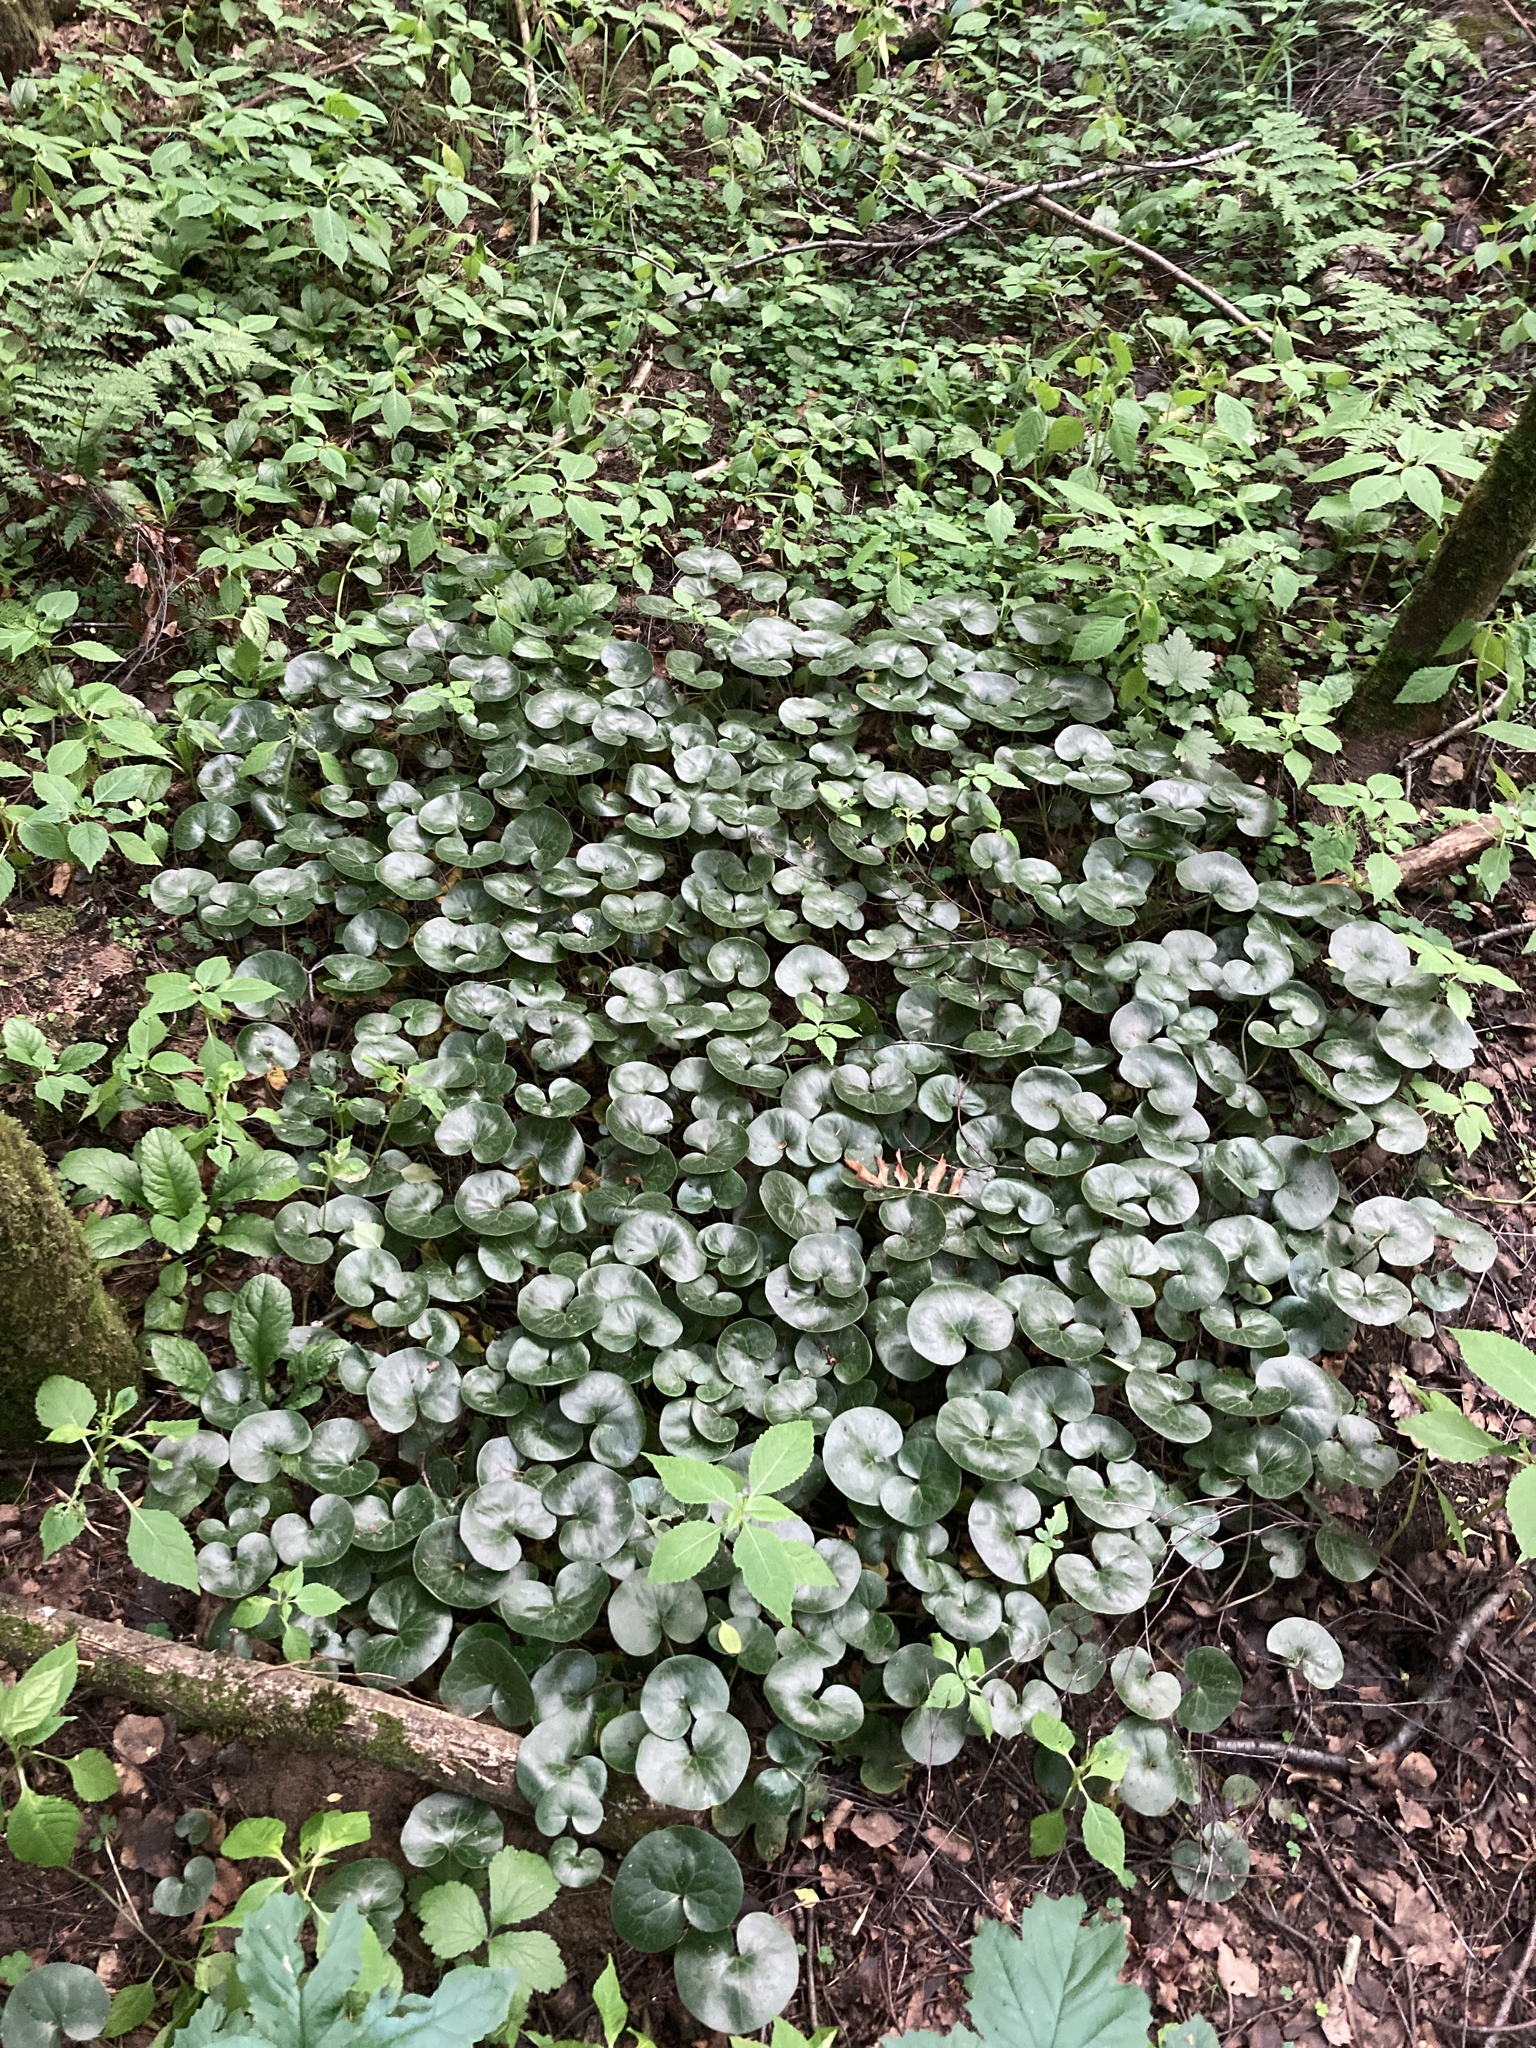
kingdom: Plantae
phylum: Tracheophyta
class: Magnoliopsida
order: Piperales
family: Aristolochiaceae
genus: Asarum
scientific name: Asarum europaeum
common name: Asarabacca
